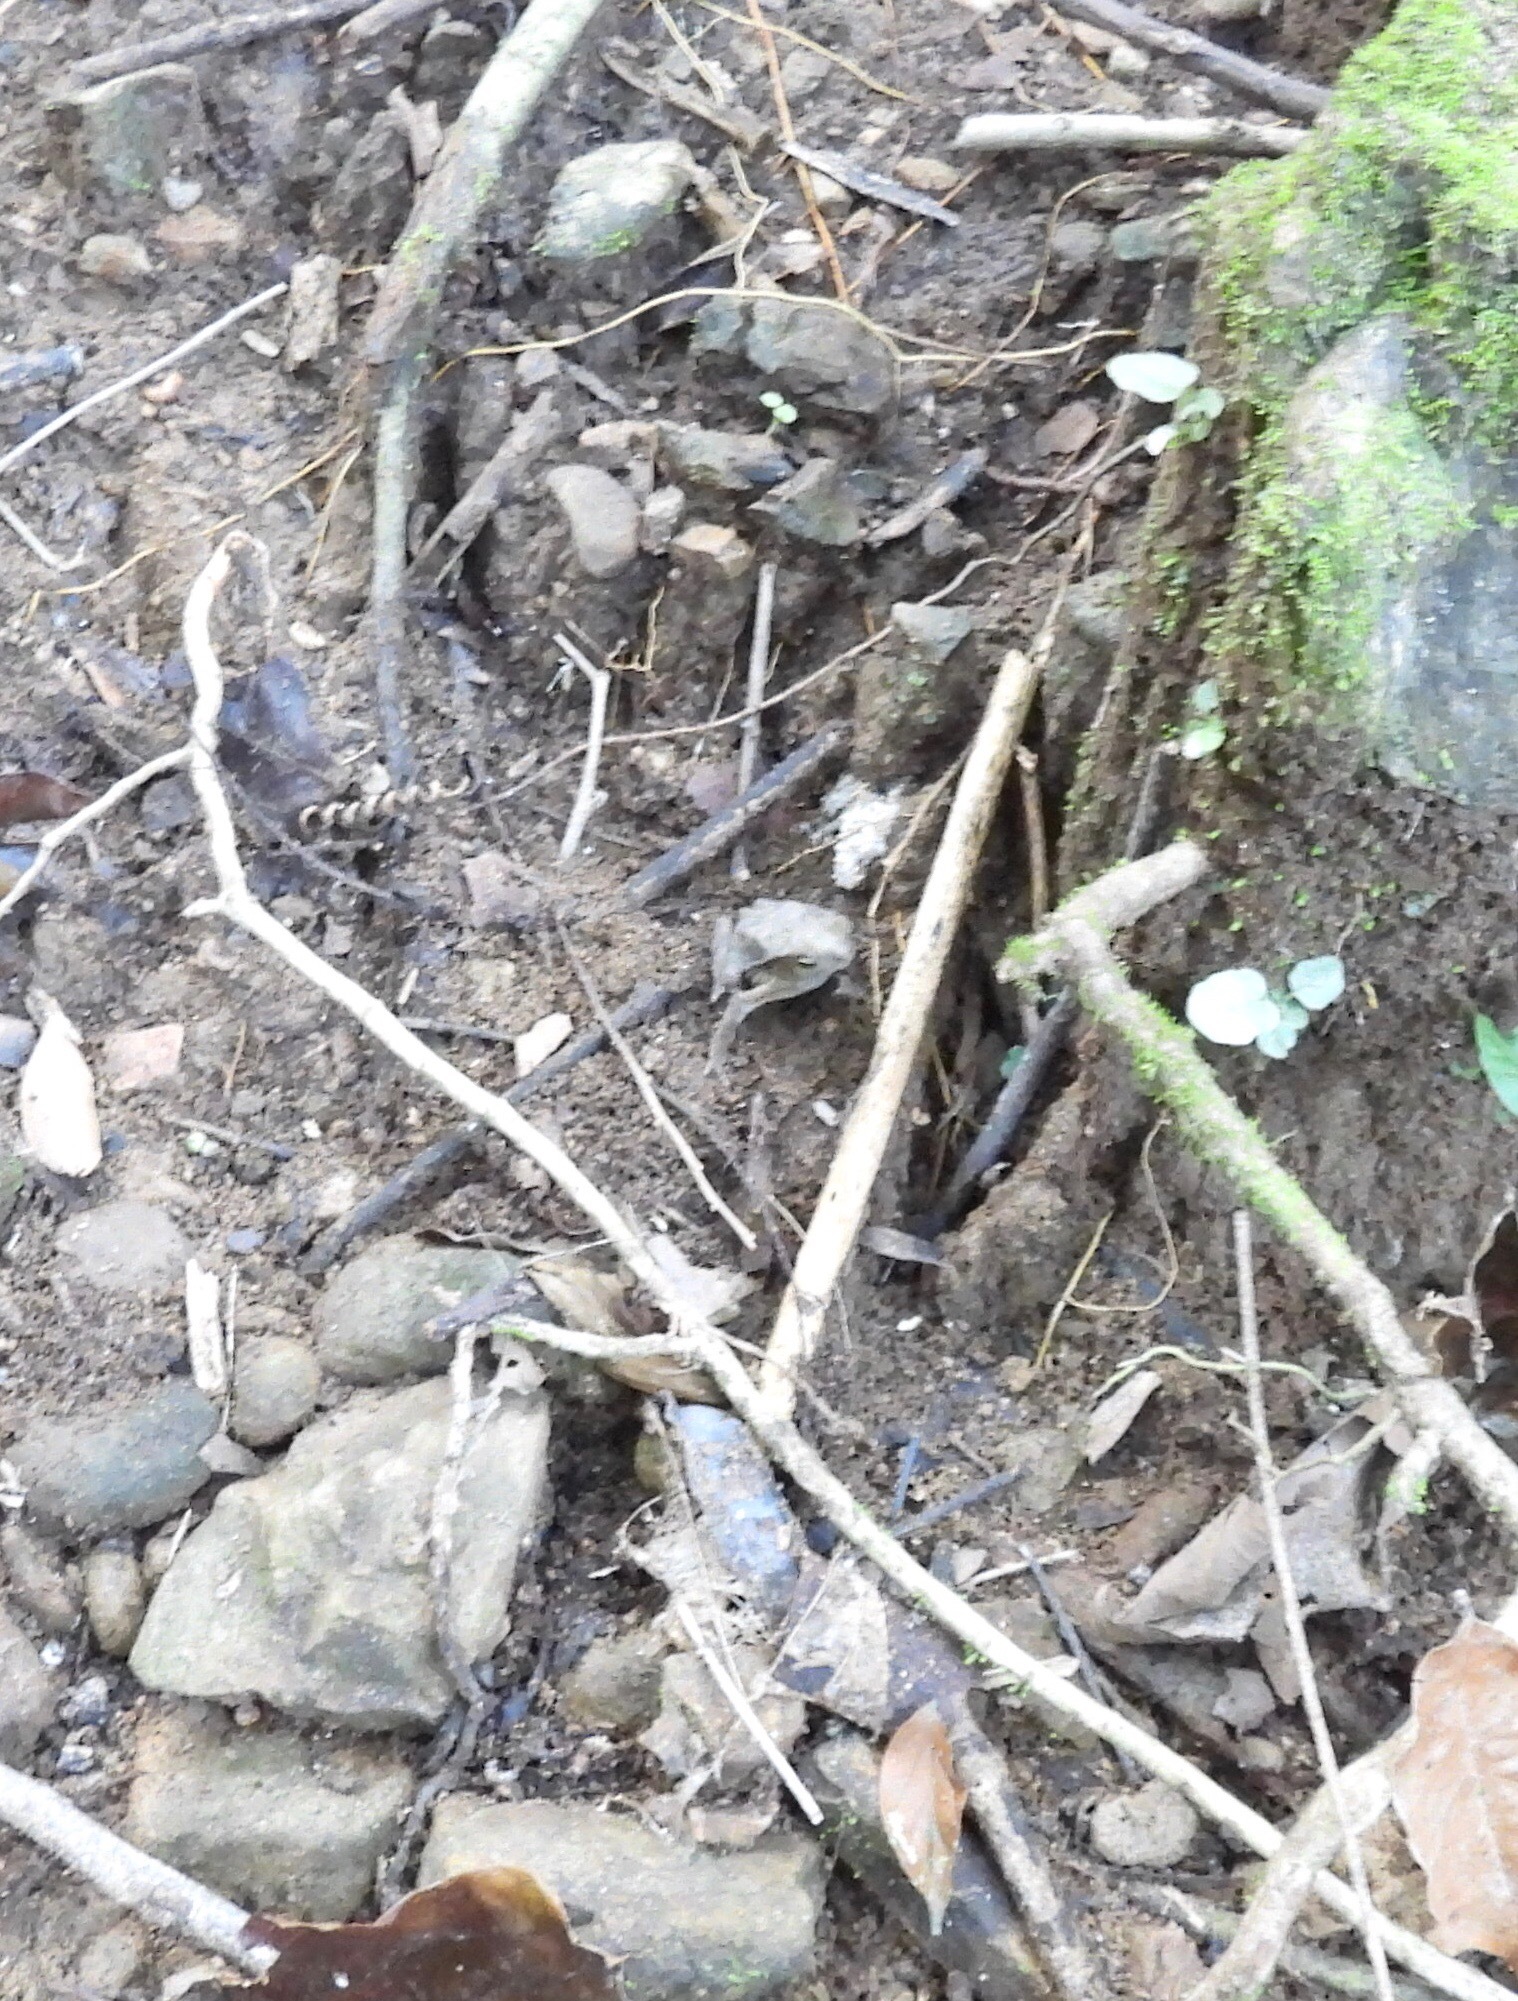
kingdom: Animalia
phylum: Chordata
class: Amphibia
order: Anura
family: Bufonidae
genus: Rhinella
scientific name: Rhinella alata
